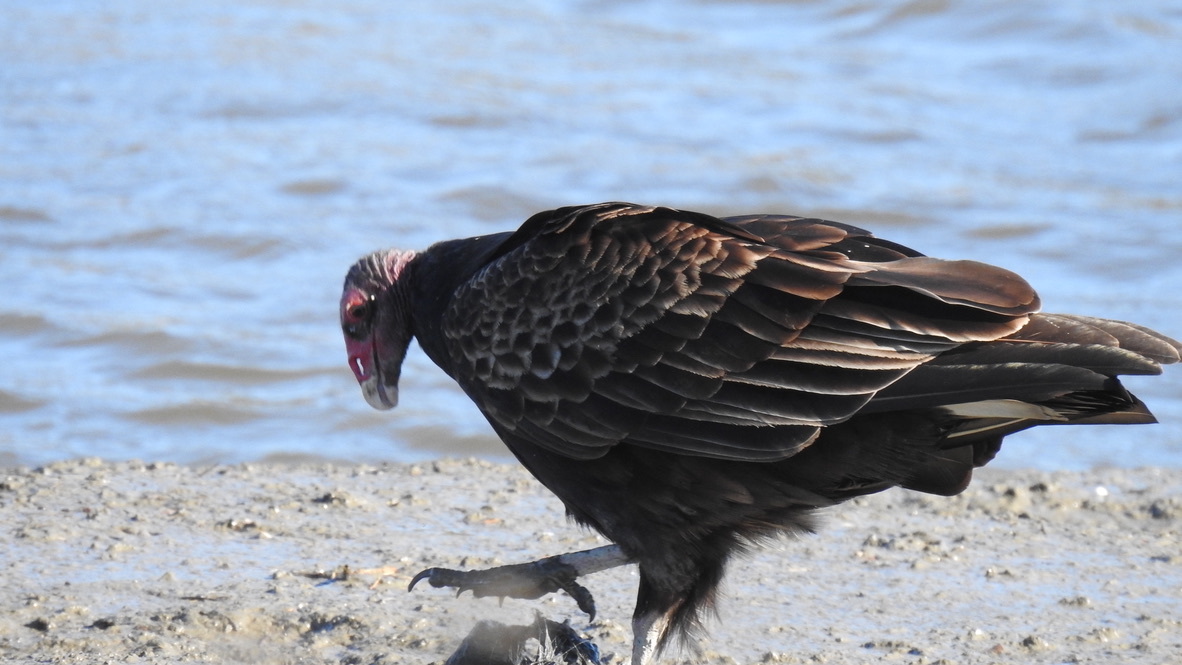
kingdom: Animalia
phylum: Chordata
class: Aves
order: Accipitriformes
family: Cathartidae
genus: Cathartes
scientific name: Cathartes aura
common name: Turkey vulture
